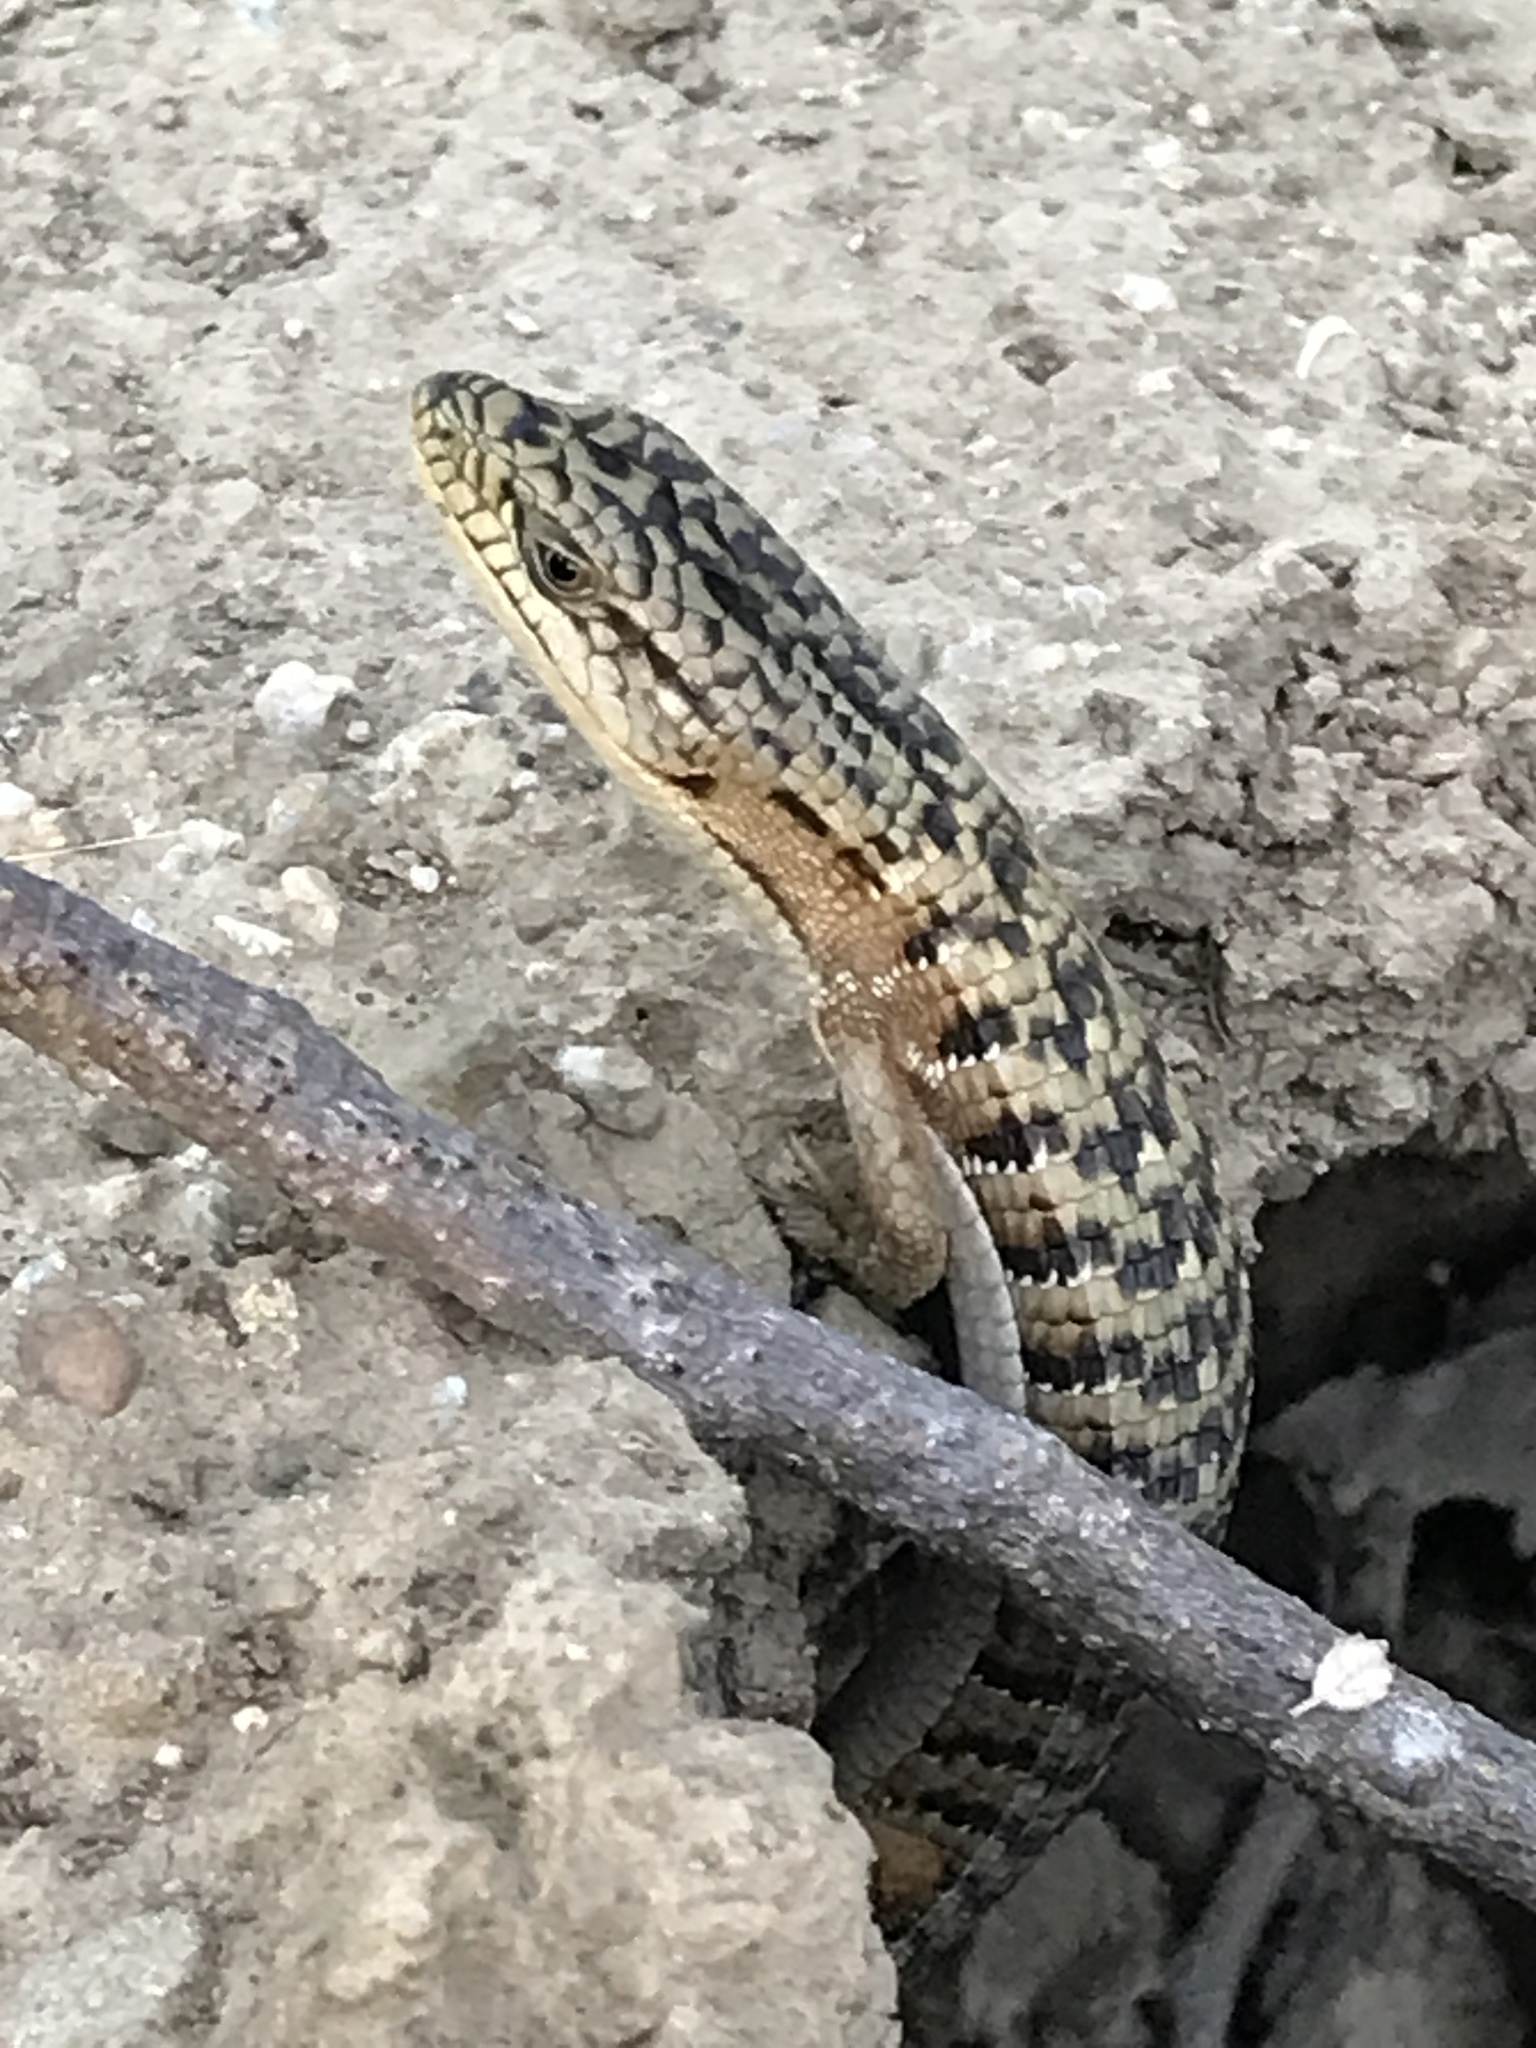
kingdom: Animalia
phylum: Chordata
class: Squamata
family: Anguidae
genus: Elgaria
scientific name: Elgaria multicarinata
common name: Southern alligator lizard
